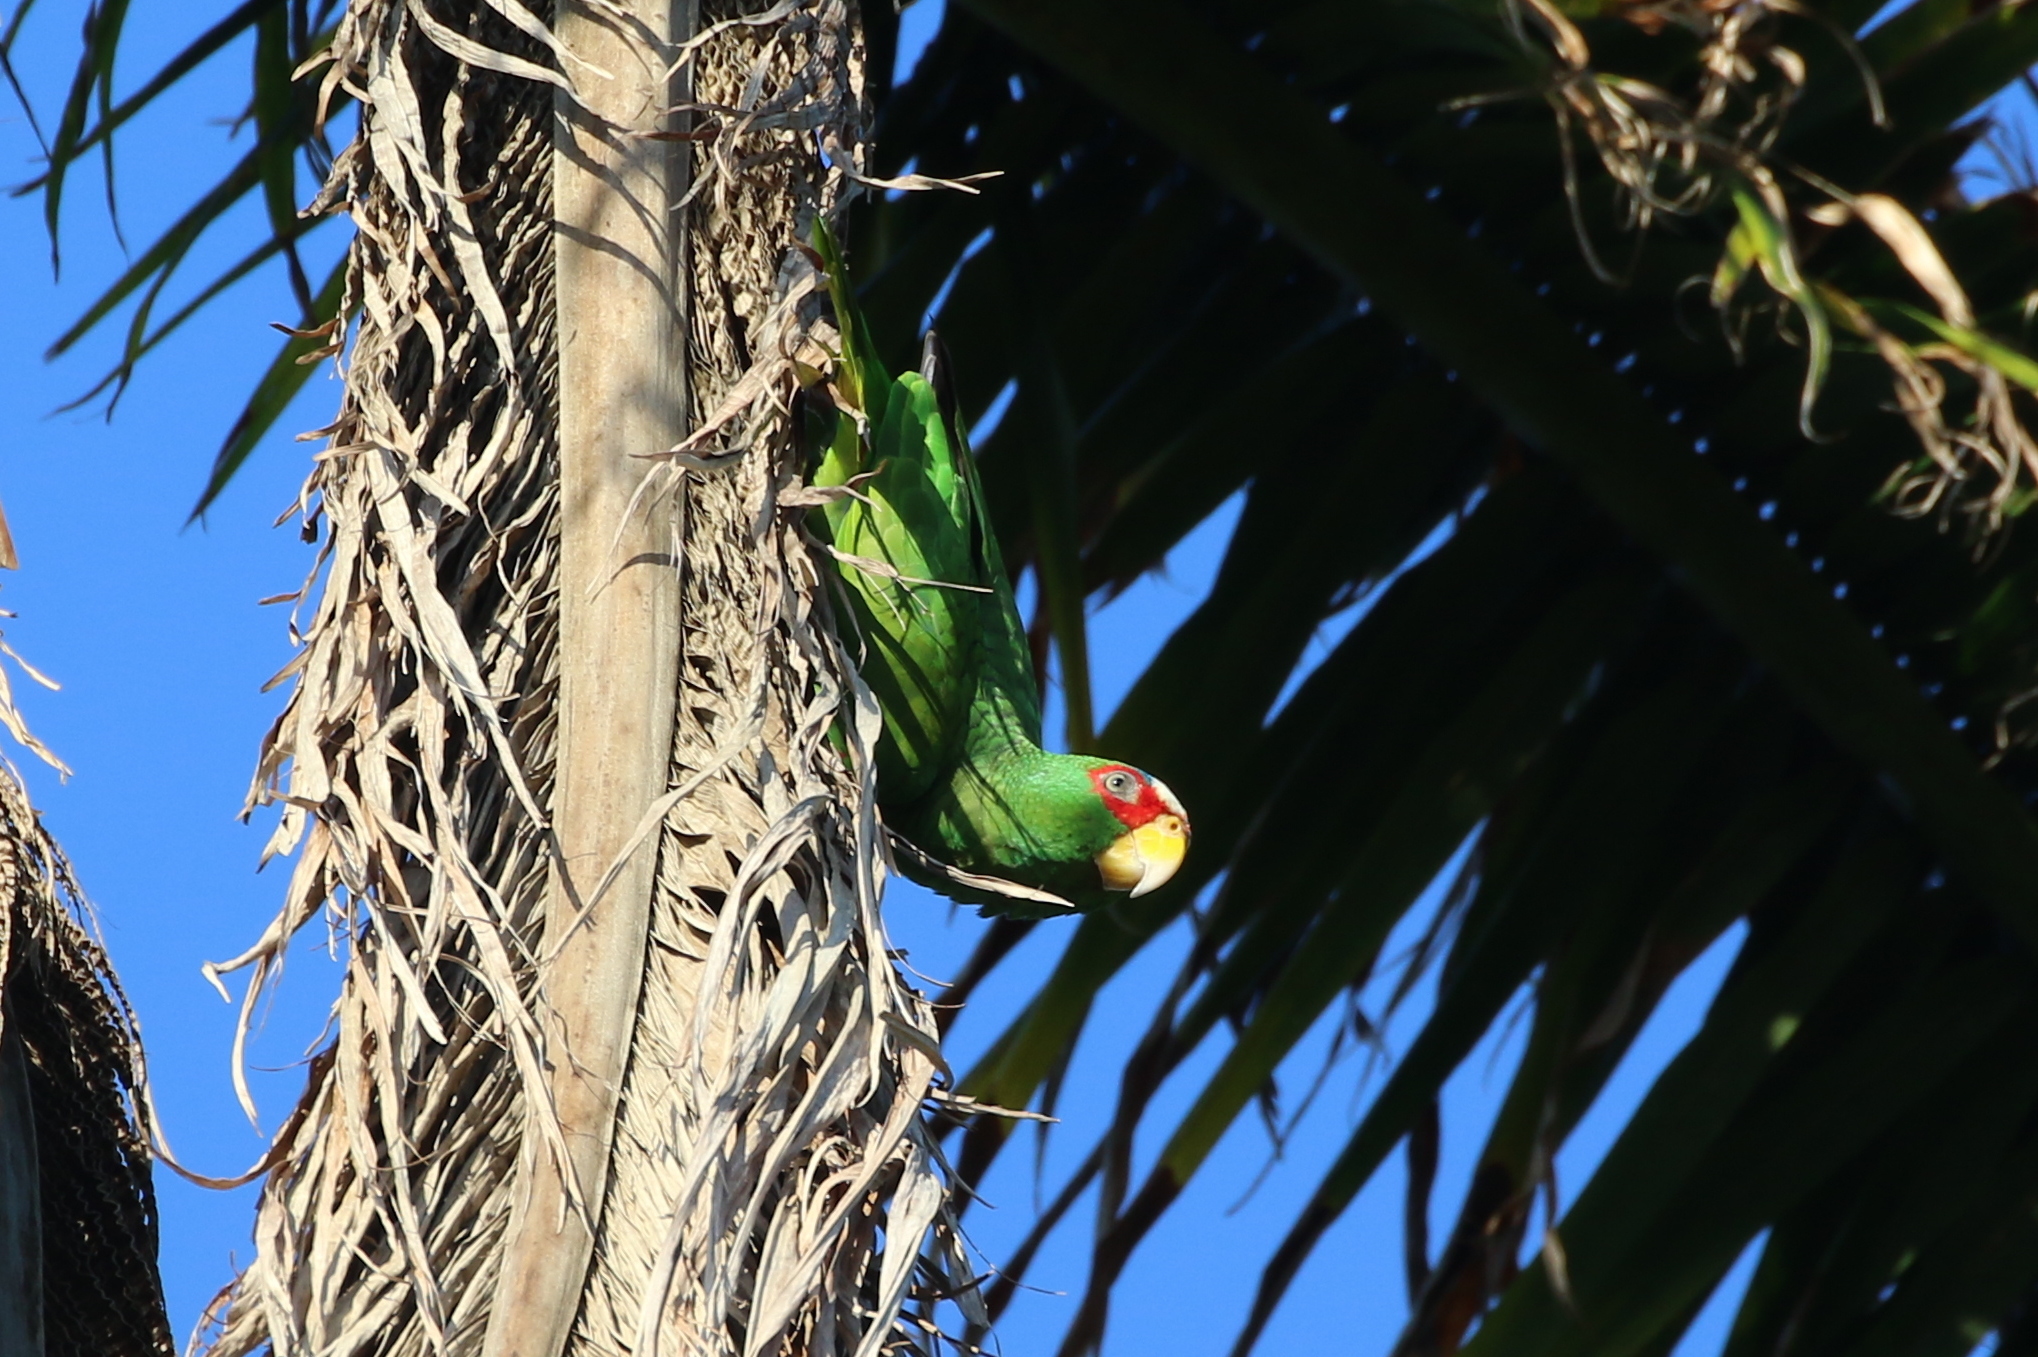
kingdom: Animalia
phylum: Chordata
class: Aves
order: Psittaciformes
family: Psittacidae
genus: Amazona
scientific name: Amazona albifrons
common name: White-fronted amazon
